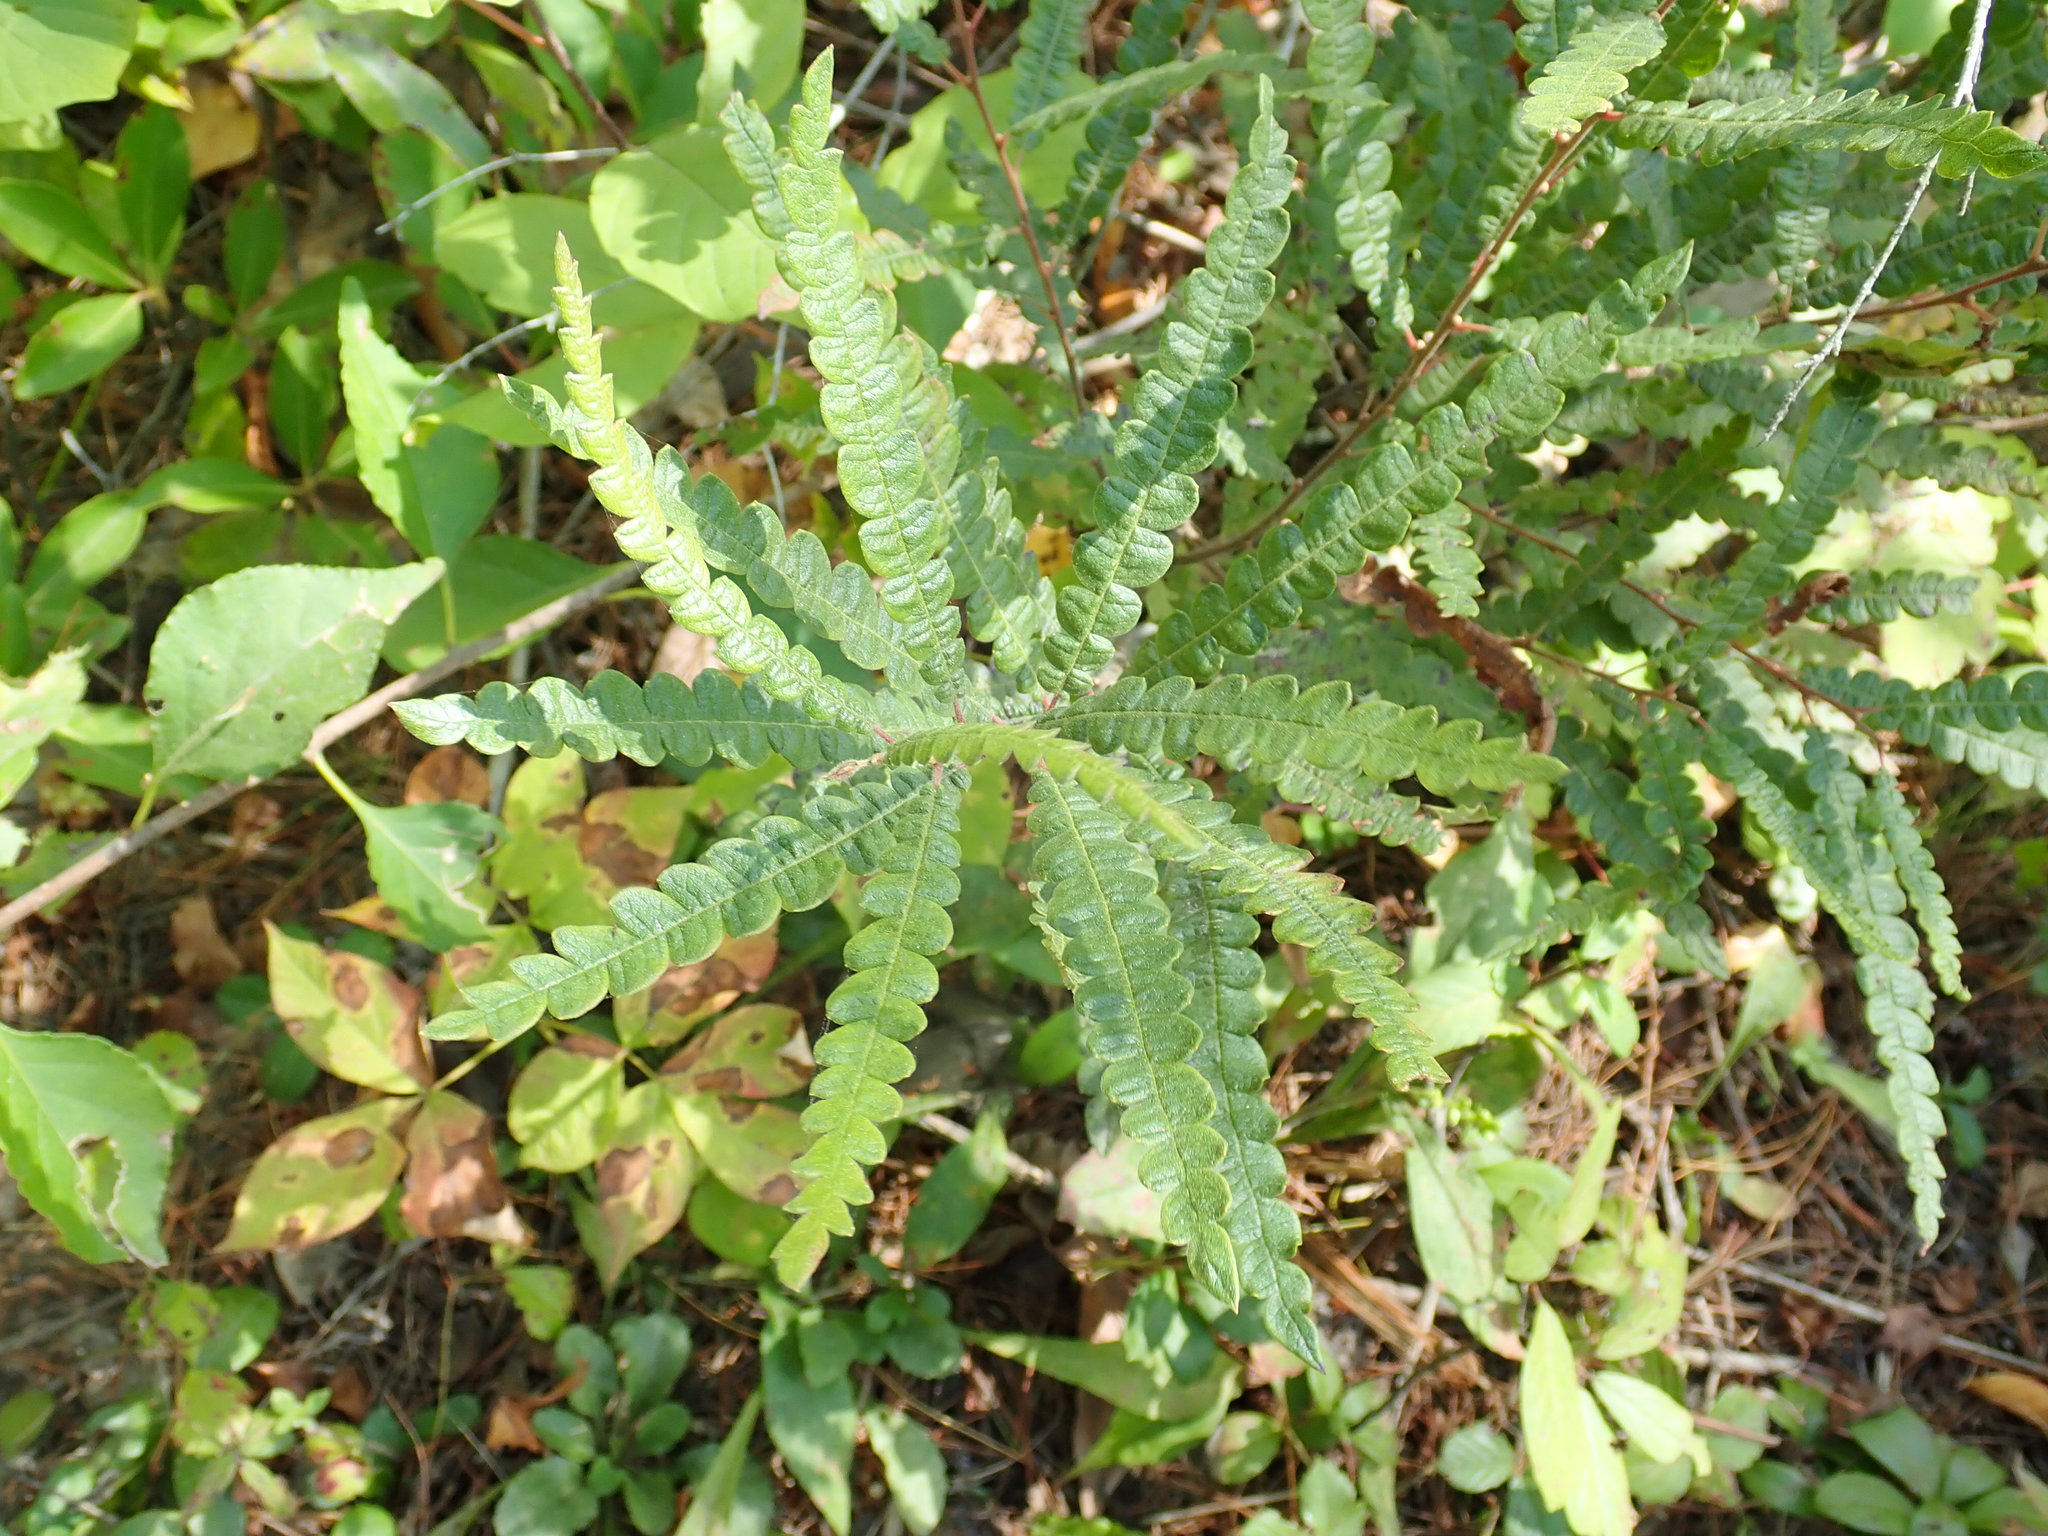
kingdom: Plantae
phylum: Tracheophyta
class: Magnoliopsida
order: Fagales
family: Myricaceae
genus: Comptonia
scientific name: Comptonia peregrina
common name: Sweet-fern
